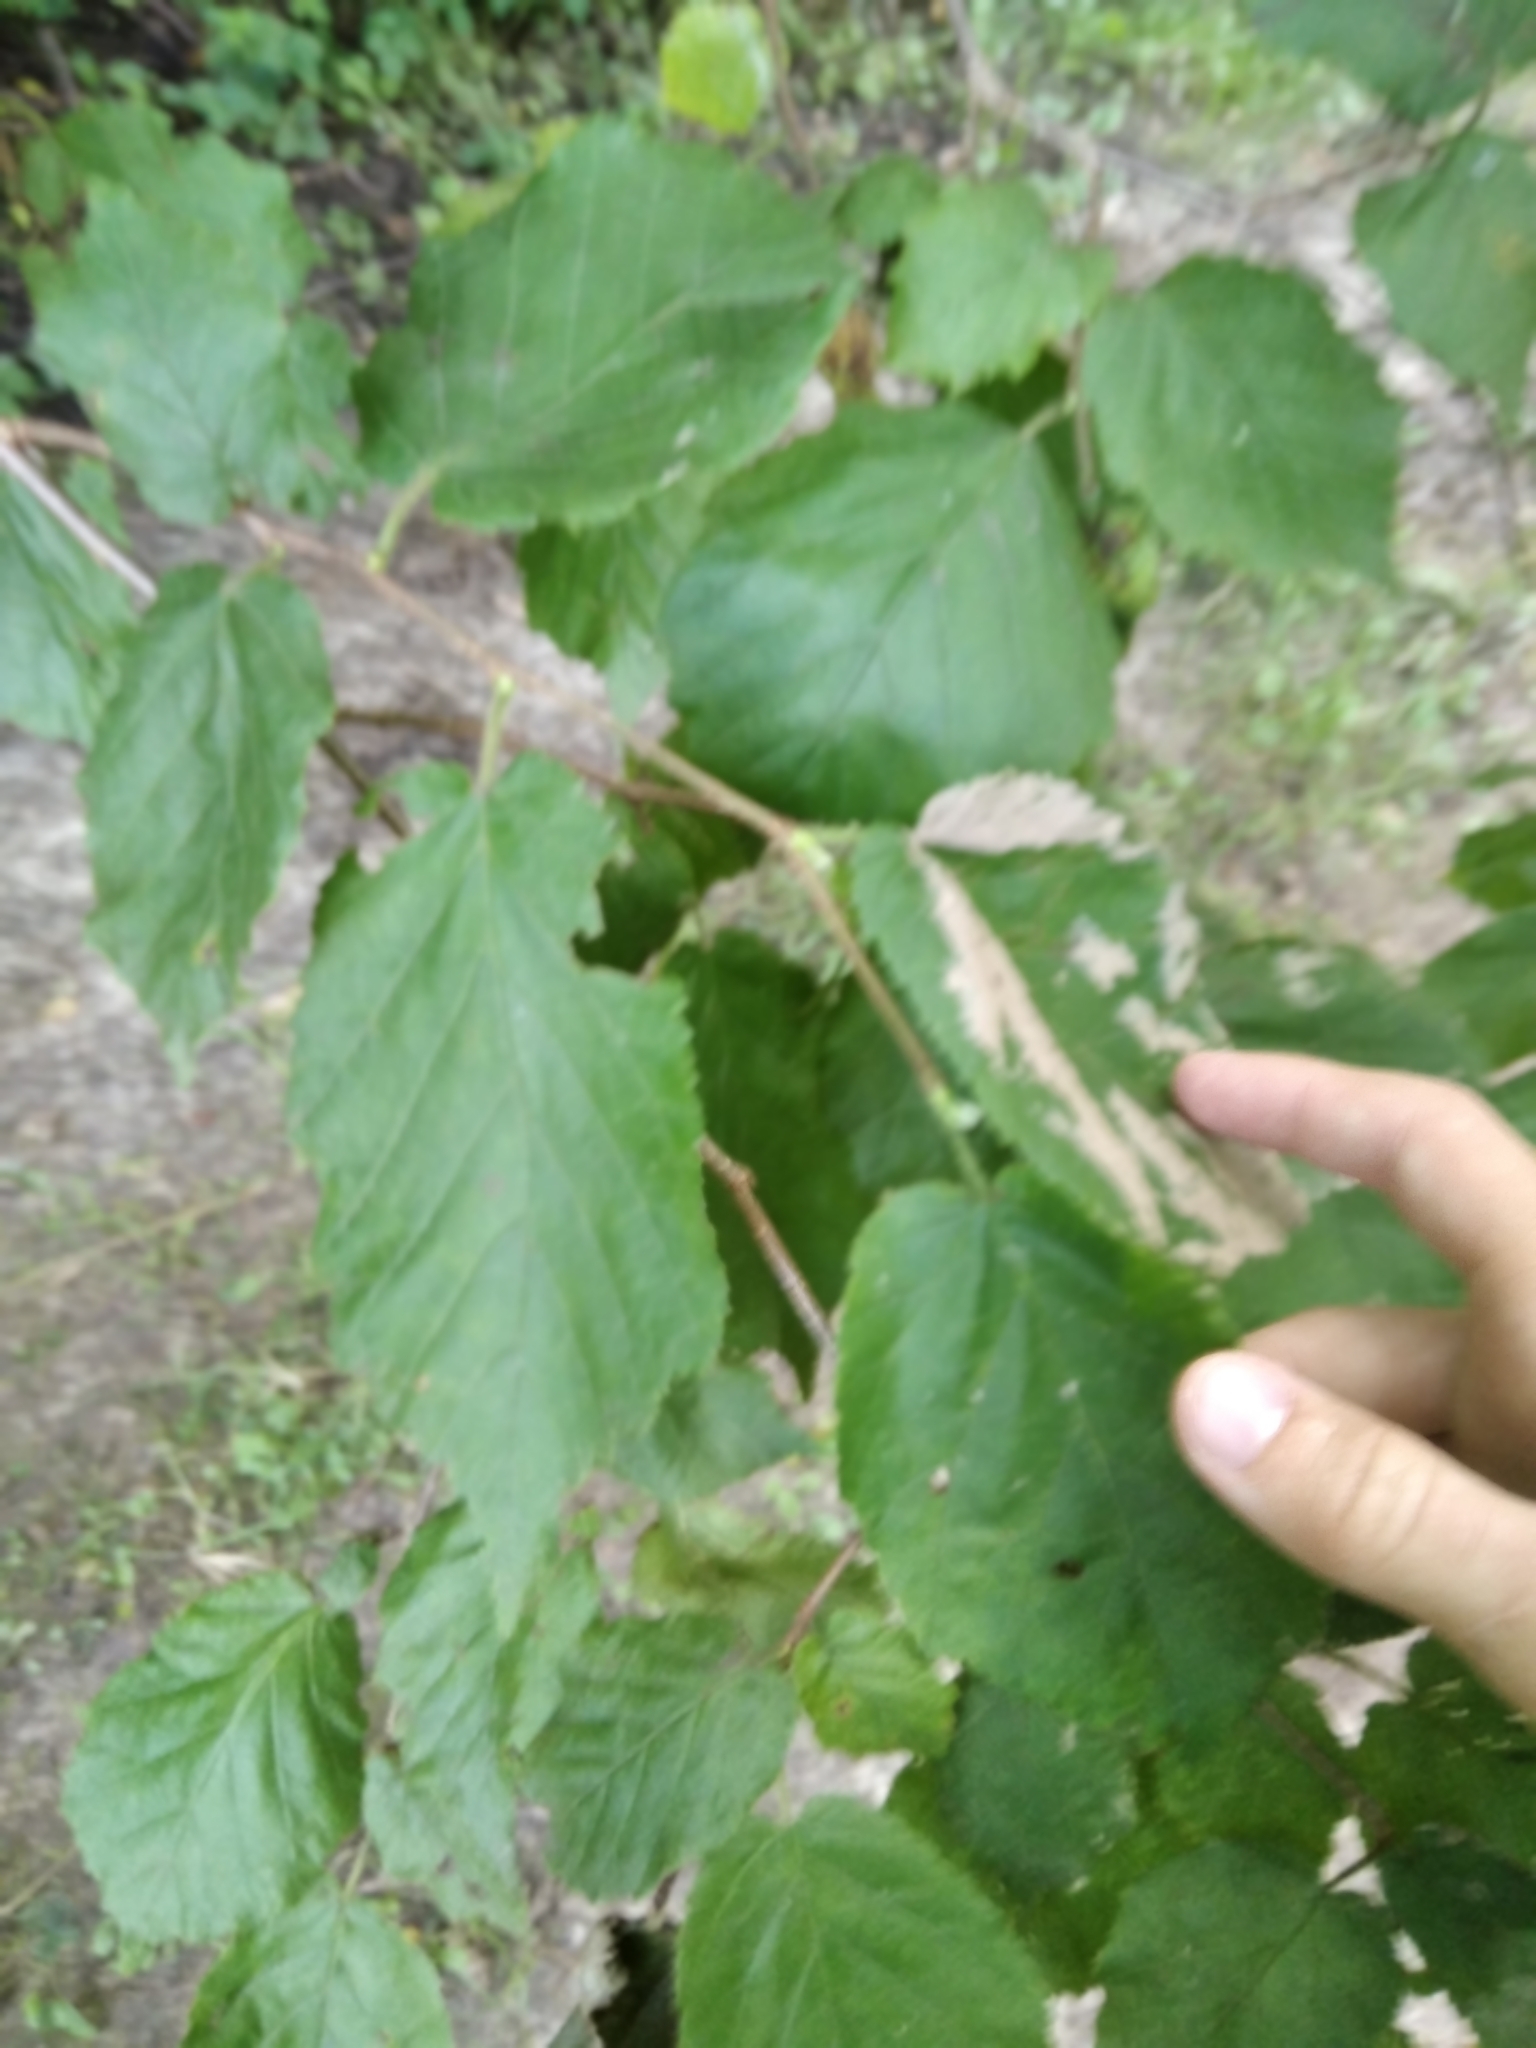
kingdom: Plantae
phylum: Tracheophyta
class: Magnoliopsida
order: Fagales
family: Betulaceae
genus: Corylus
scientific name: Corylus avellana
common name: European hazel
